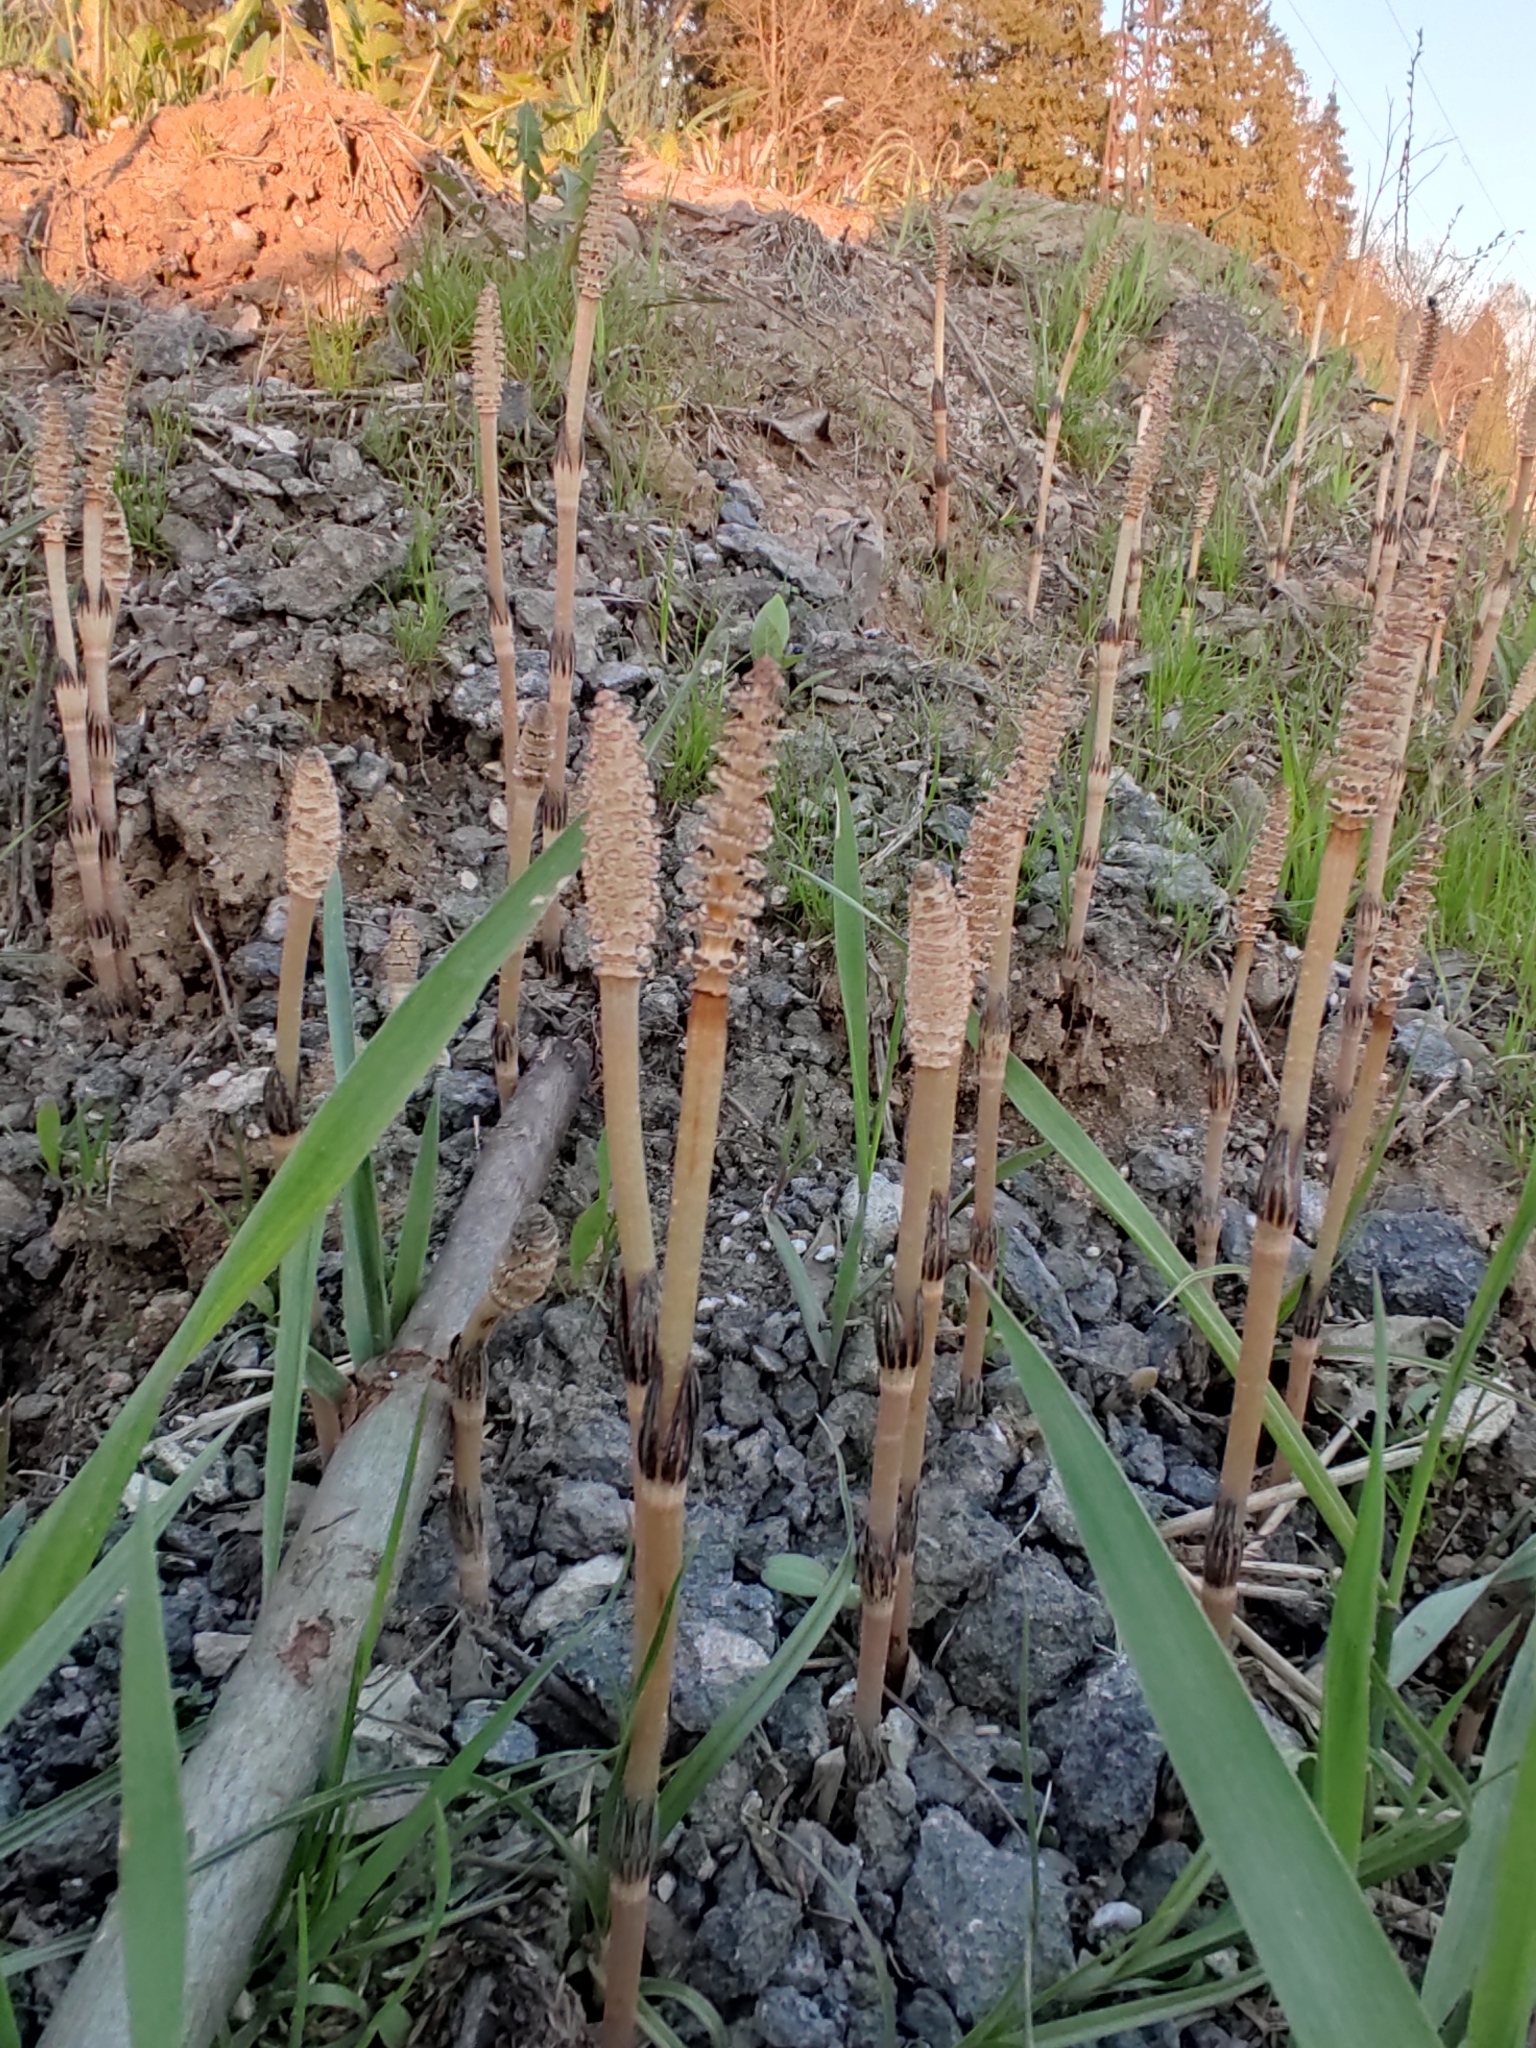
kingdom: Plantae
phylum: Tracheophyta
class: Polypodiopsida
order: Equisetales
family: Equisetaceae
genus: Equisetum
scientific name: Equisetum arvense
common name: Field horsetail
